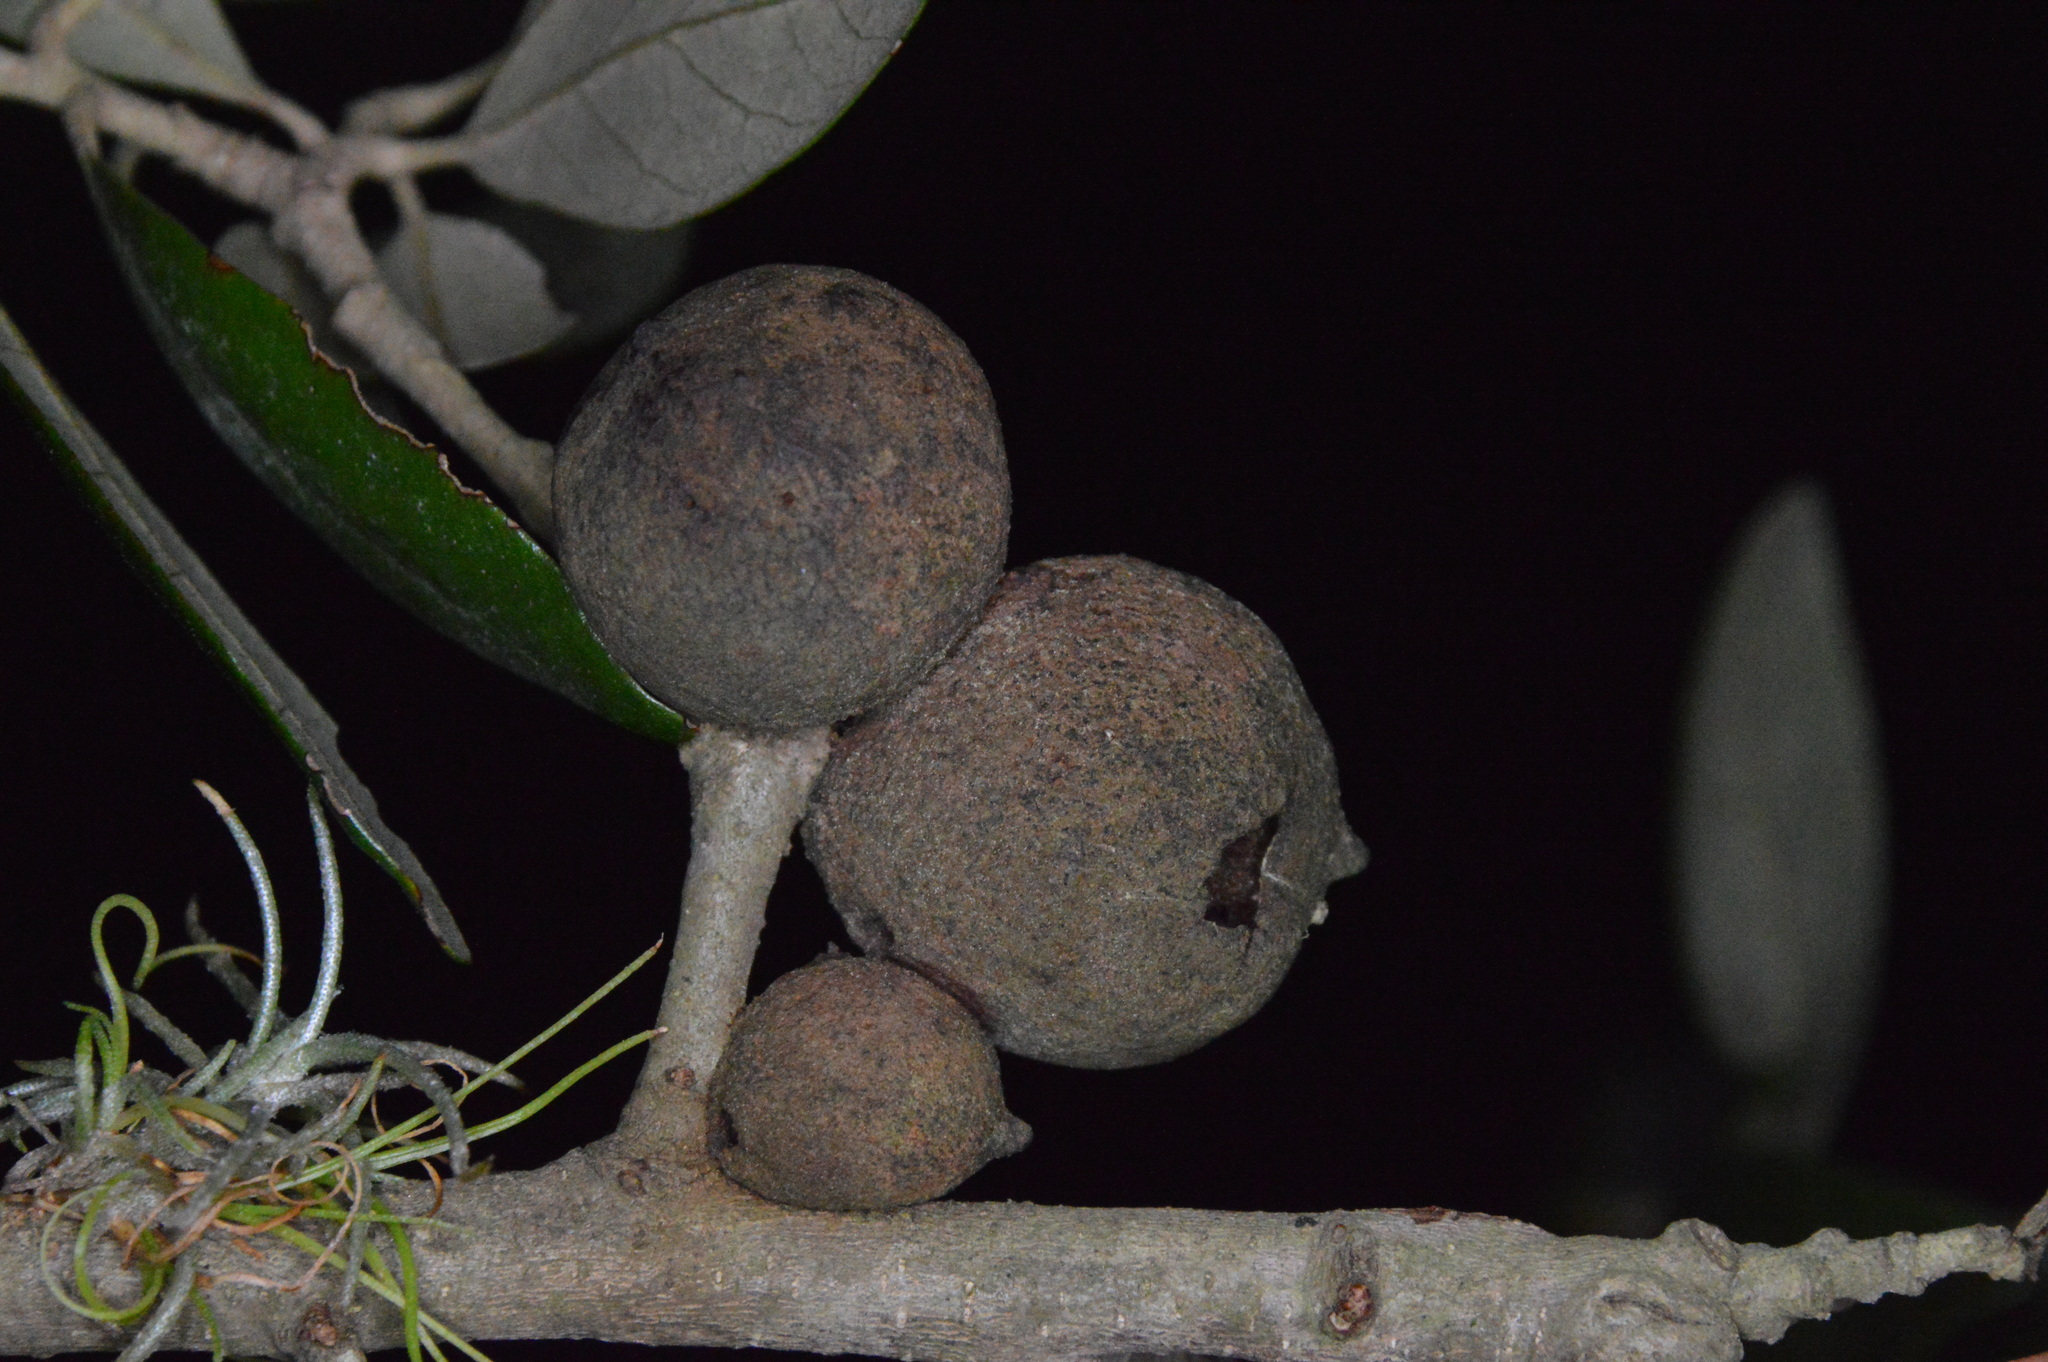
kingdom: Animalia
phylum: Arthropoda
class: Insecta
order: Hymenoptera
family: Cynipidae
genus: Disholcaspis
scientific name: Disholcaspis
